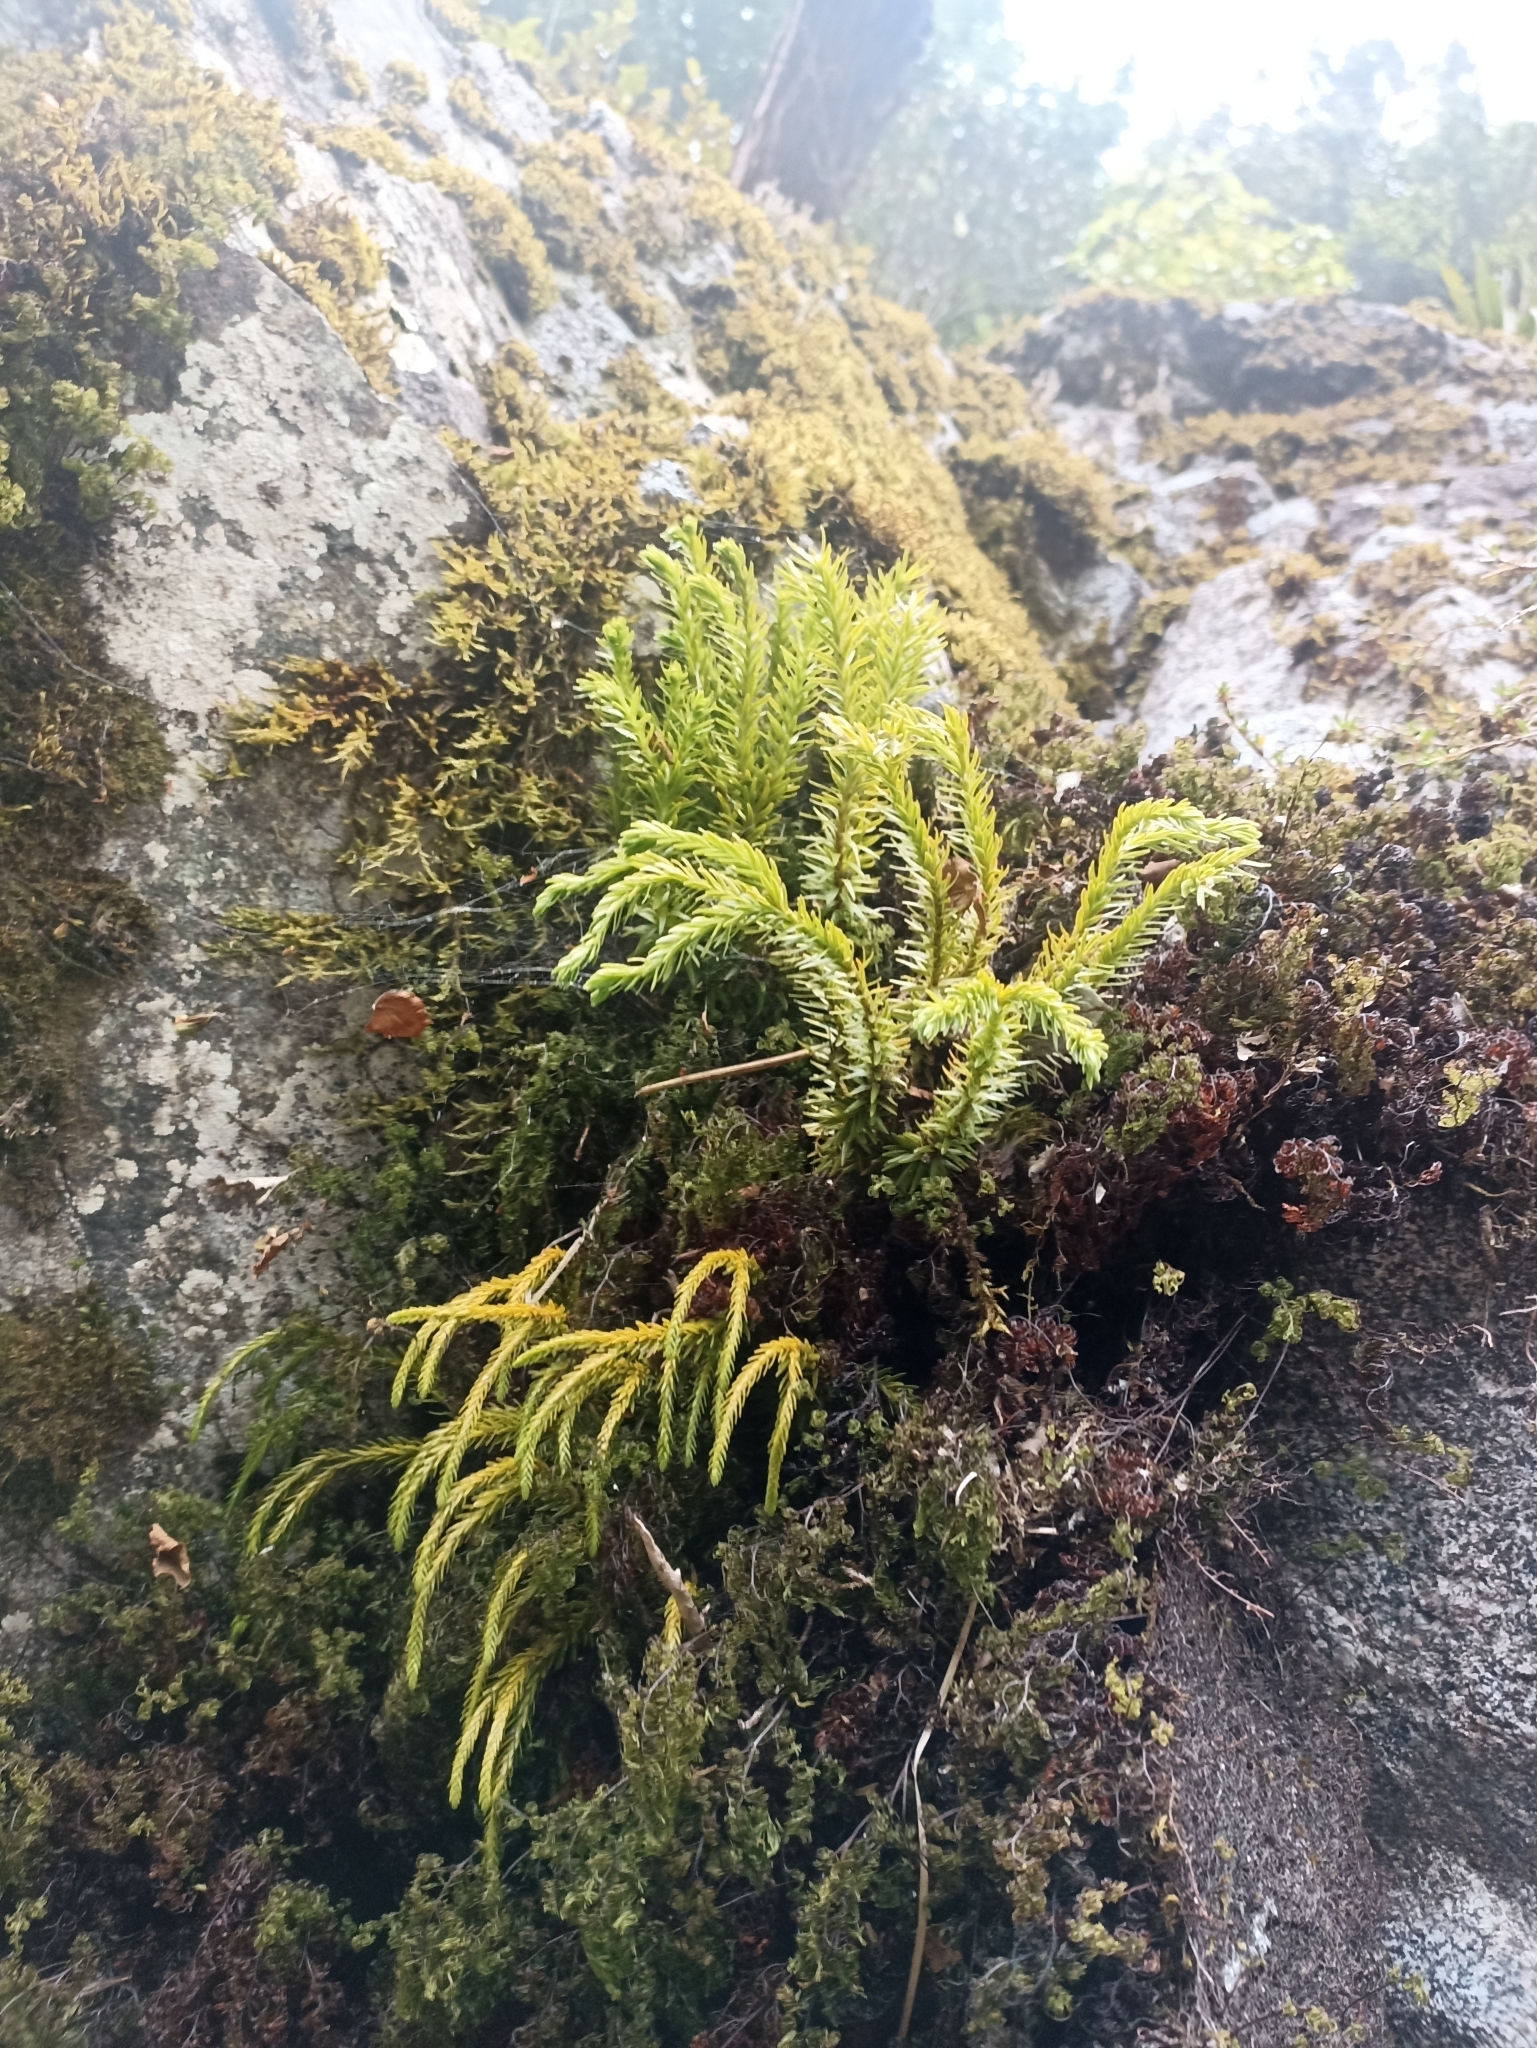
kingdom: Plantae
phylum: Tracheophyta
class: Lycopodiopsida
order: Lycopodiales
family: Lycopodiaceae
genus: Phlegmariurus
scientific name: Phlegmariurus varius
